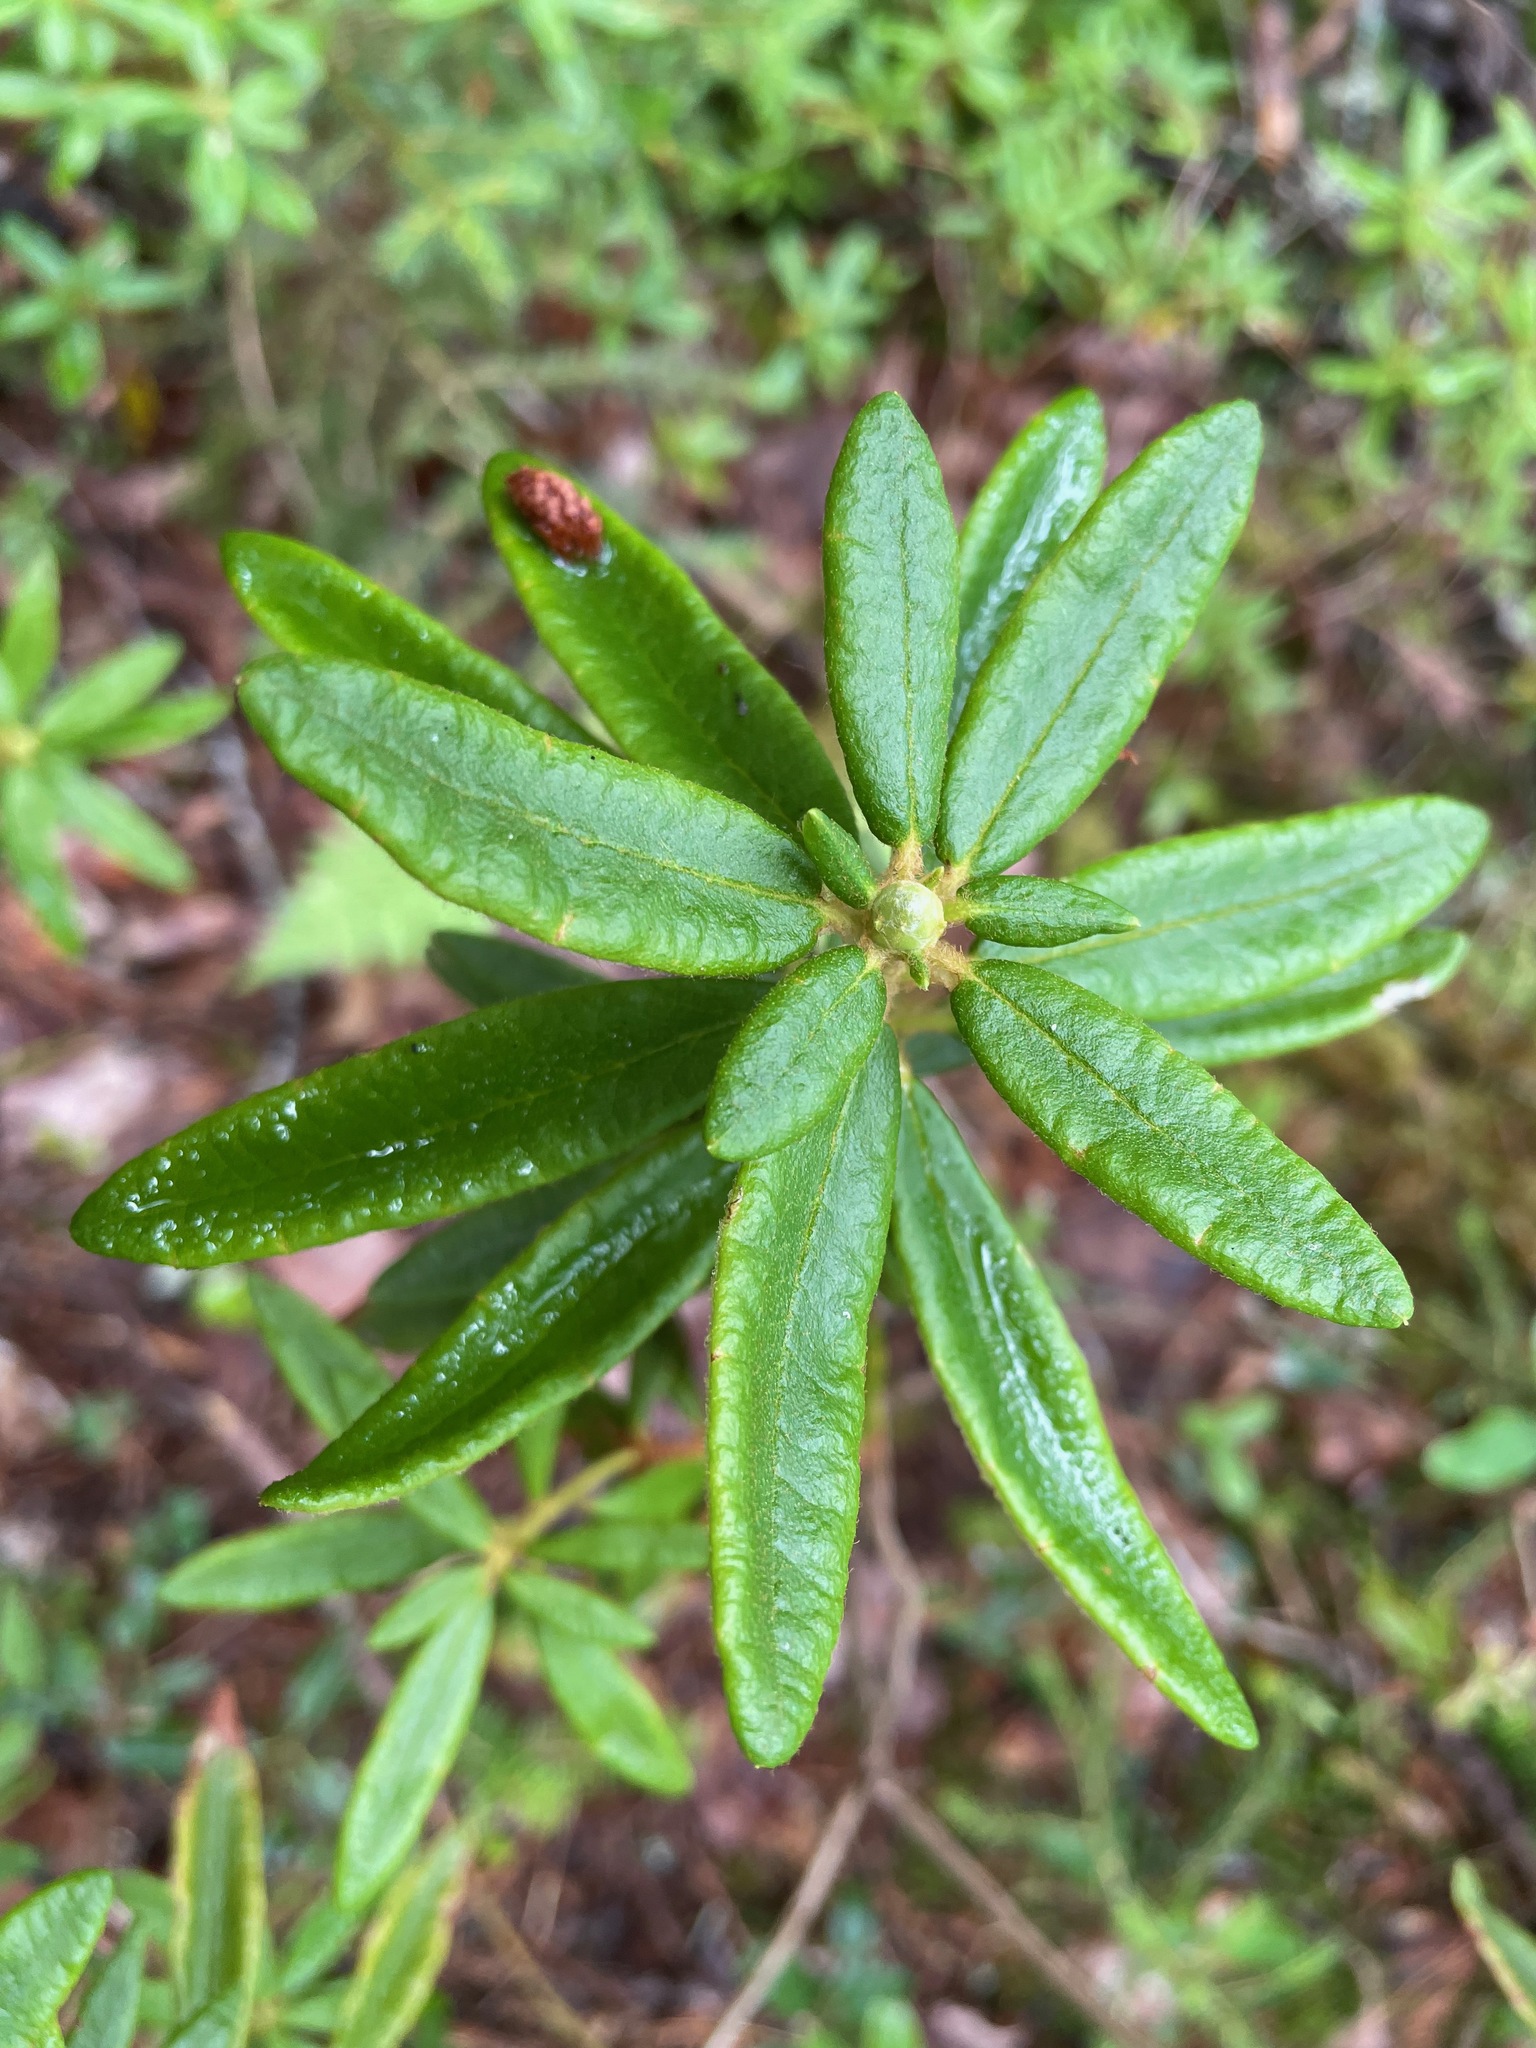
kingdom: Plantae
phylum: Tracheophyta
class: Magnoliopsida
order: Ericales
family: Ericaceae
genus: Rhododendron
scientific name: Rhododendron groenlandicum
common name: Bog labrador tea
